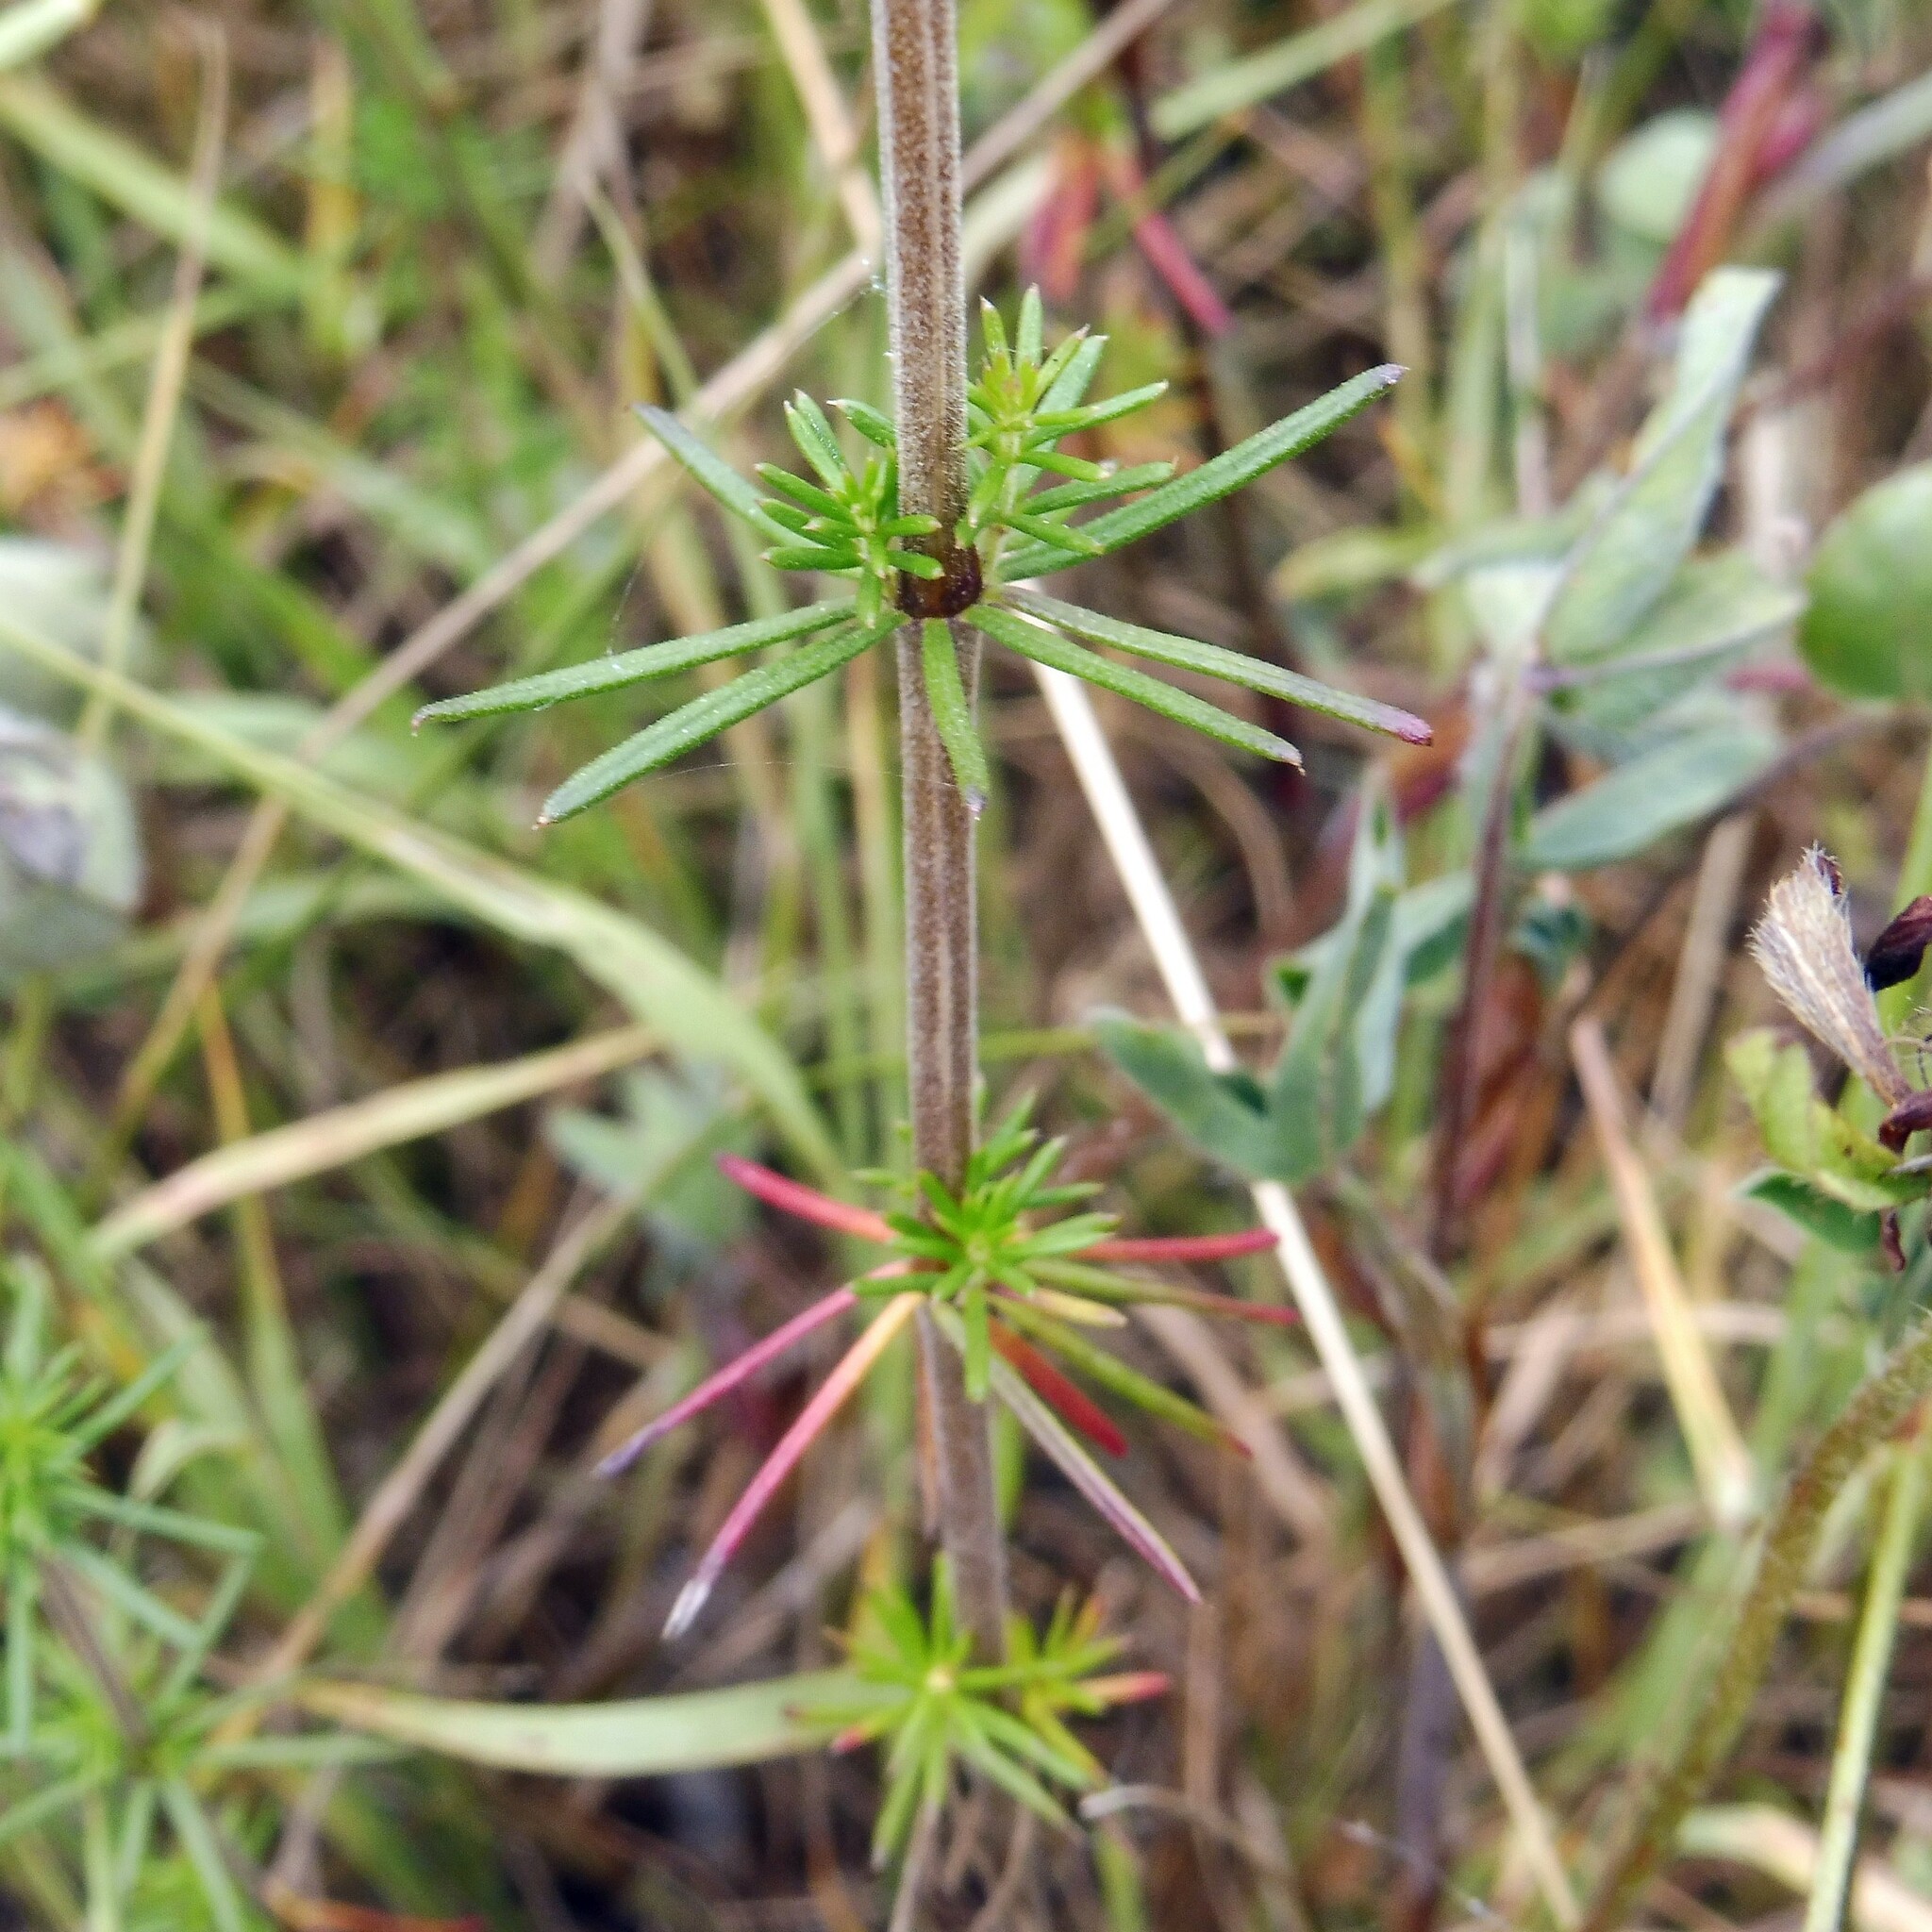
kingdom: Plantae
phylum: Tracheophyta
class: Magnoliopsida
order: Gentianales
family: Rubiaceae
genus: Galium
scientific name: Galium verum
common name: Lady's bedstraw
